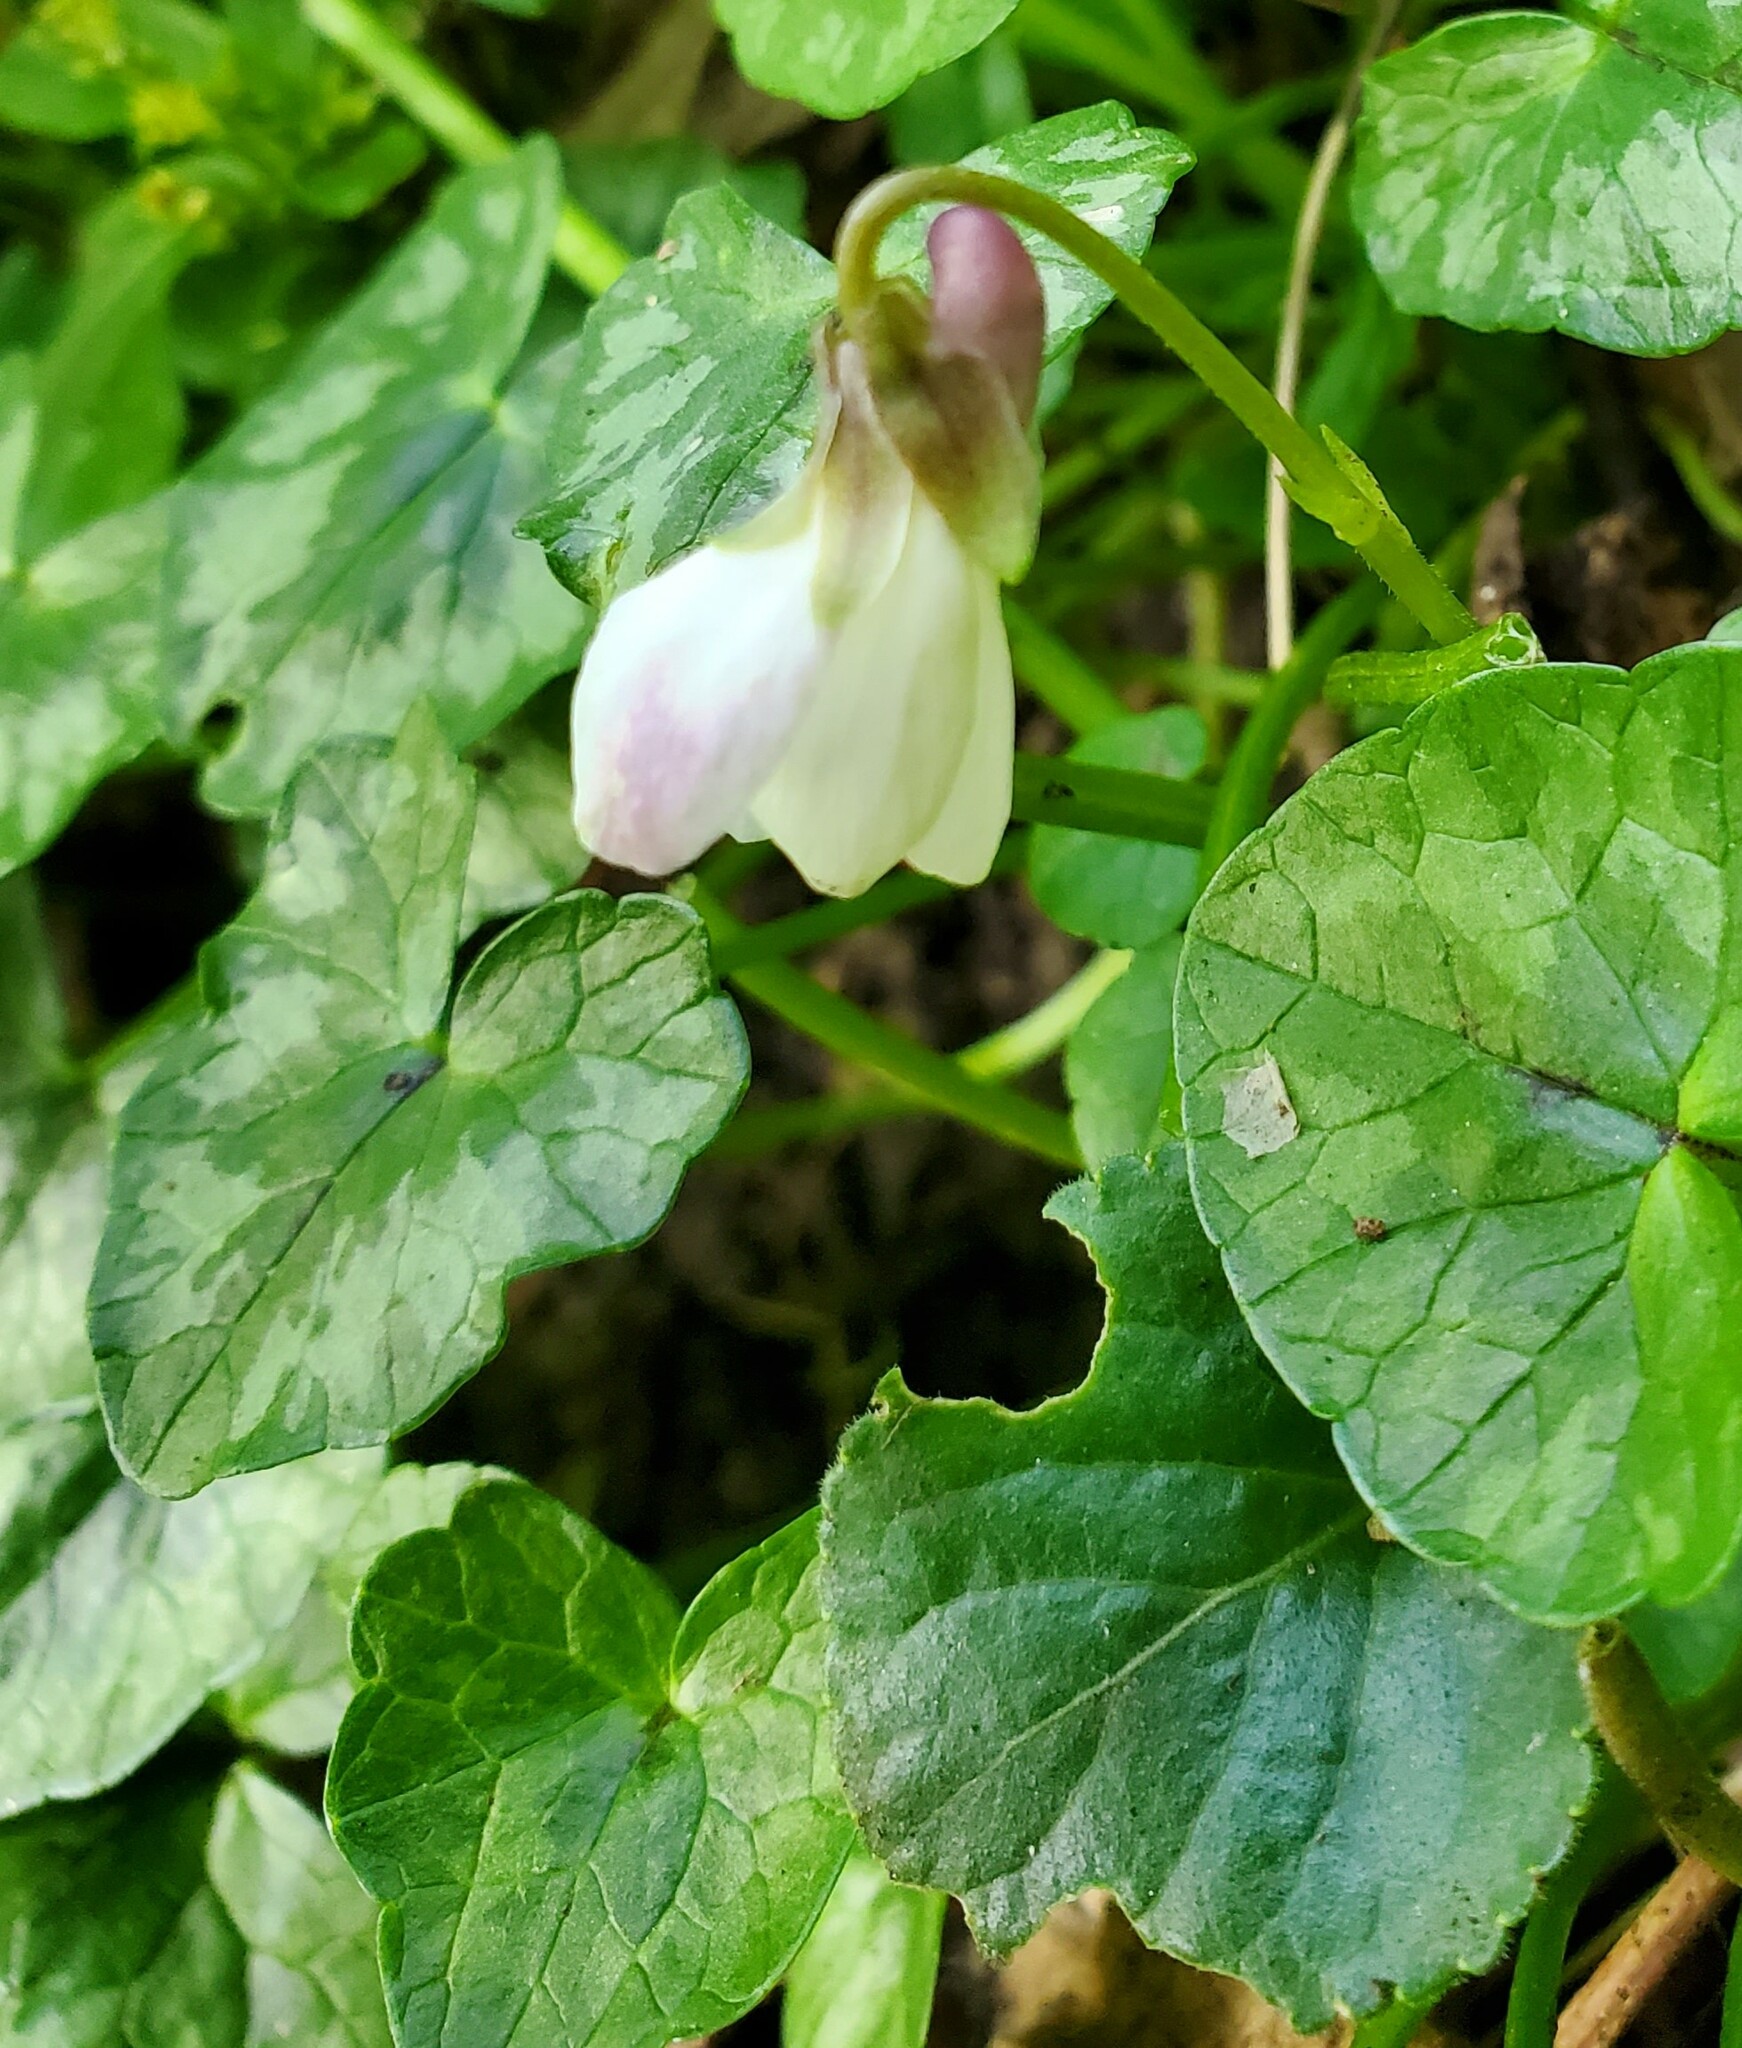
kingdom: Plantae
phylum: Tracheophyta
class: Magnoliopsida
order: Malpighiales
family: Violaceae
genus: Viola
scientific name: Viola odorata
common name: Sweet violet
